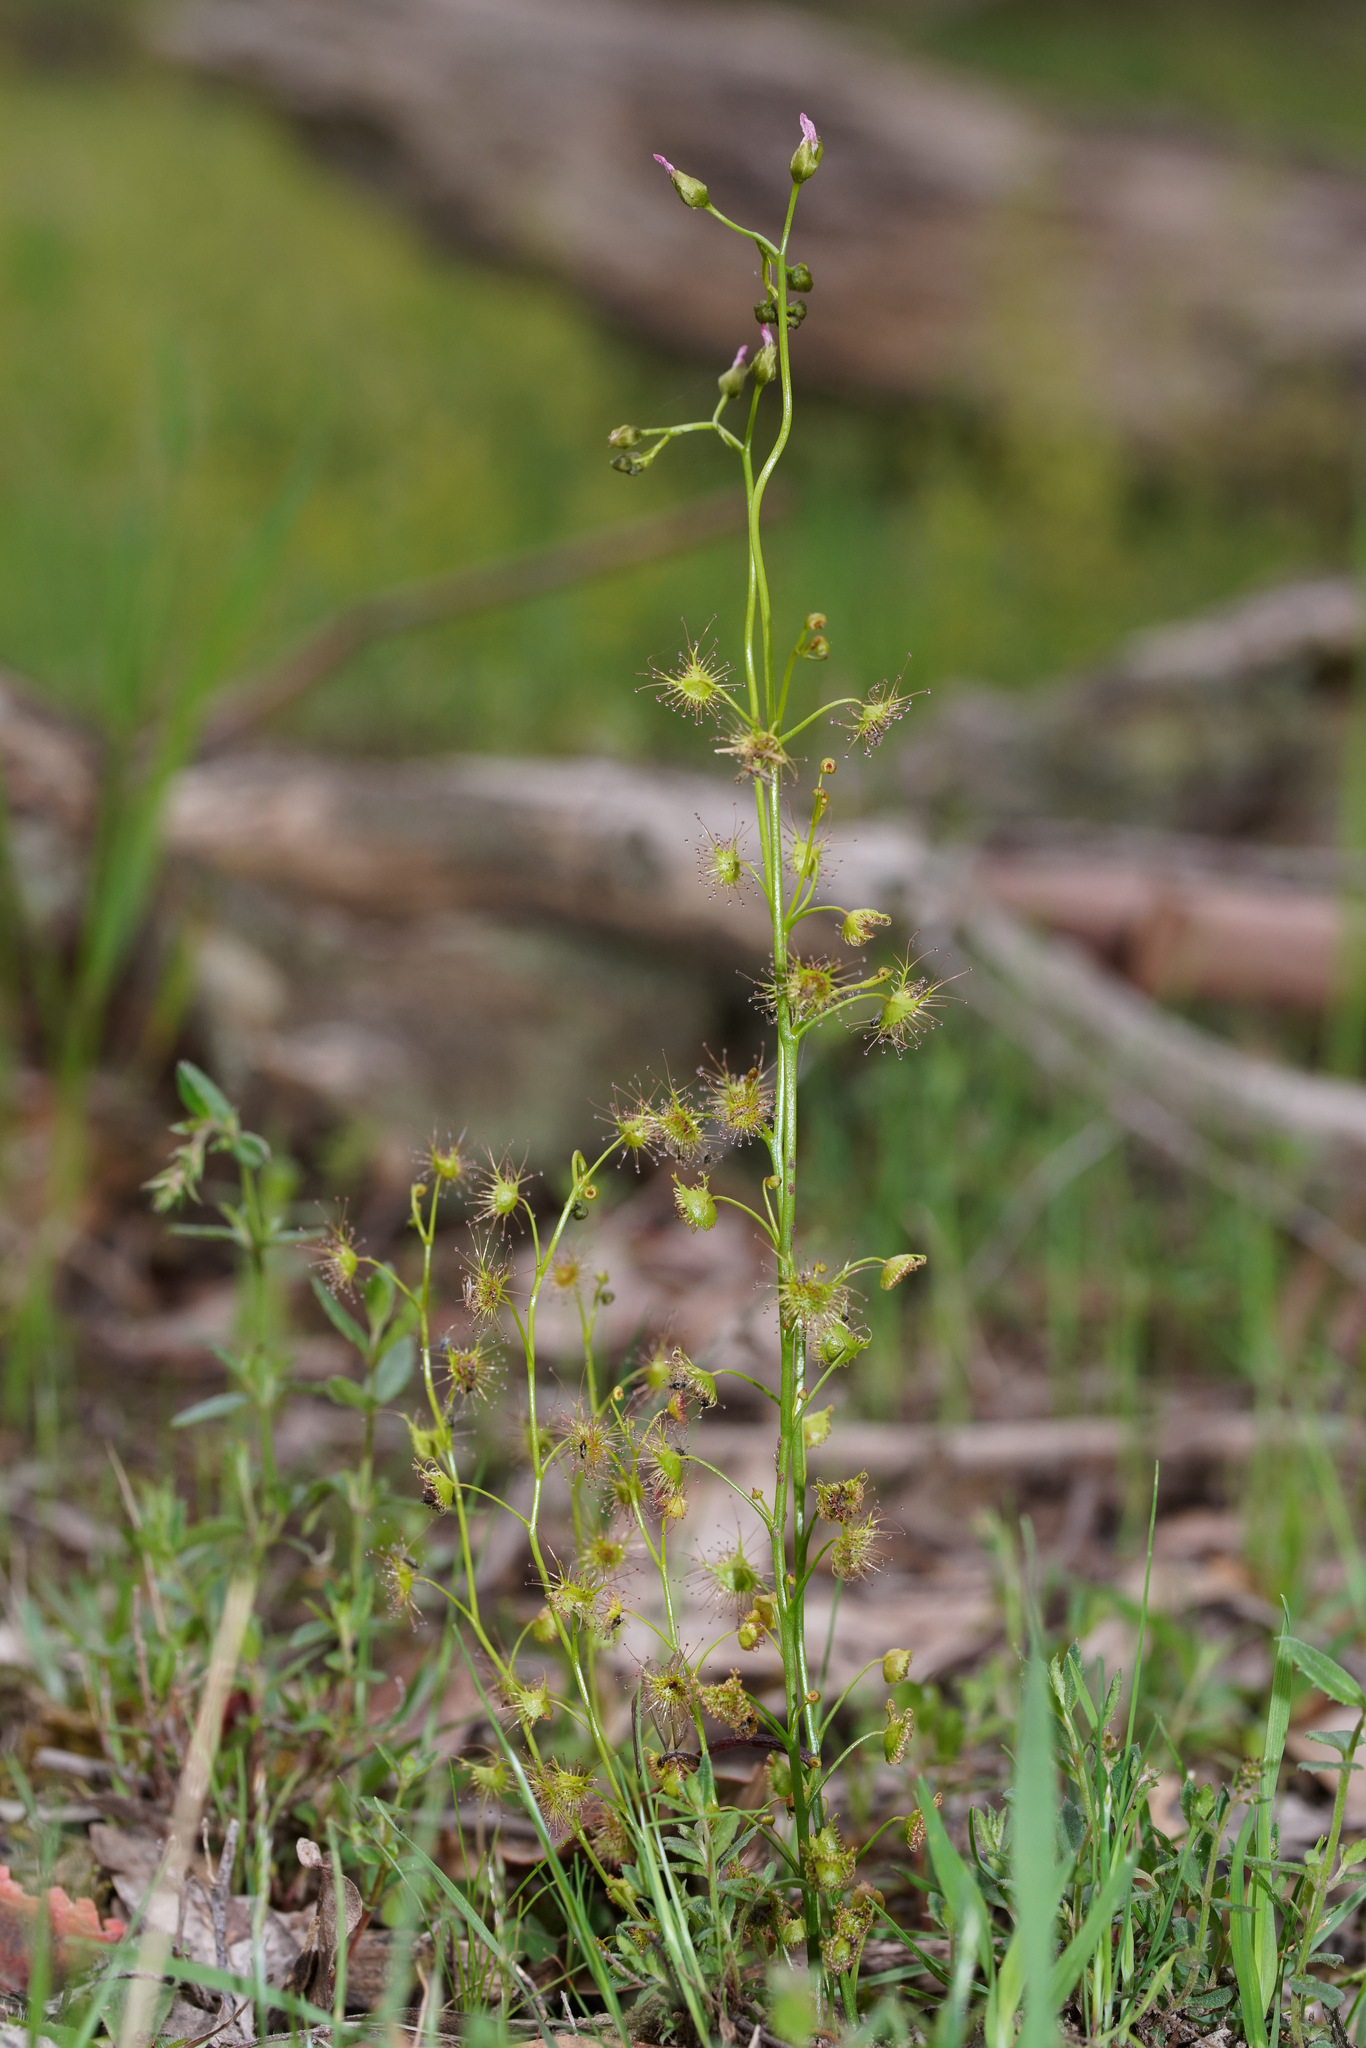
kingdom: Plantae
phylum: Tracheophyta
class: Magnoliopsida
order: Caryophyllales
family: Droseraceae
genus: Drosera
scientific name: Drosera peltata
